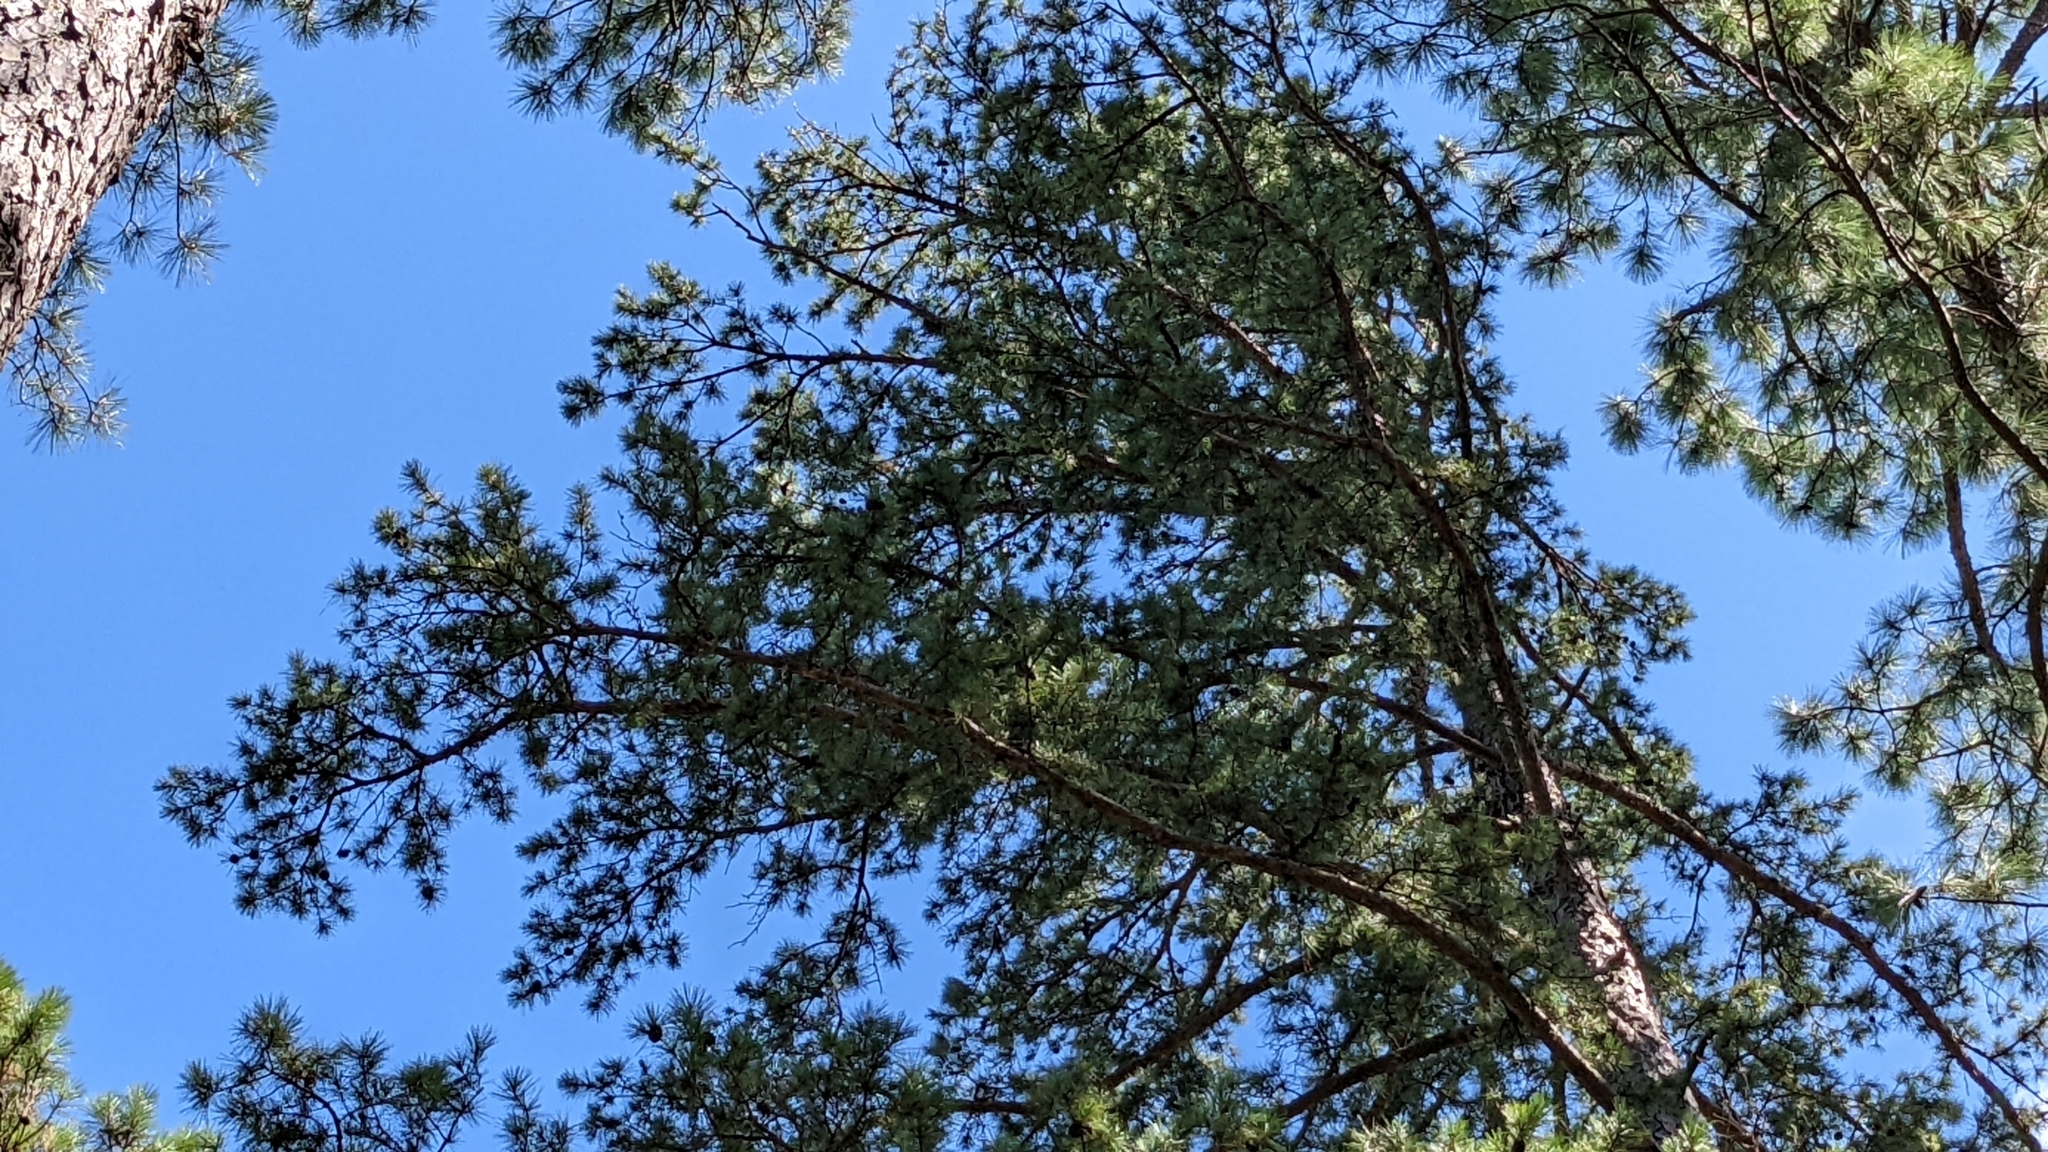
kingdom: Plantae
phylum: Tracheophyta
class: Pinopsida
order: Pinales
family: Pinaceae
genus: Pinus
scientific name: Pinus echinata
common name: Shortleaf pine
